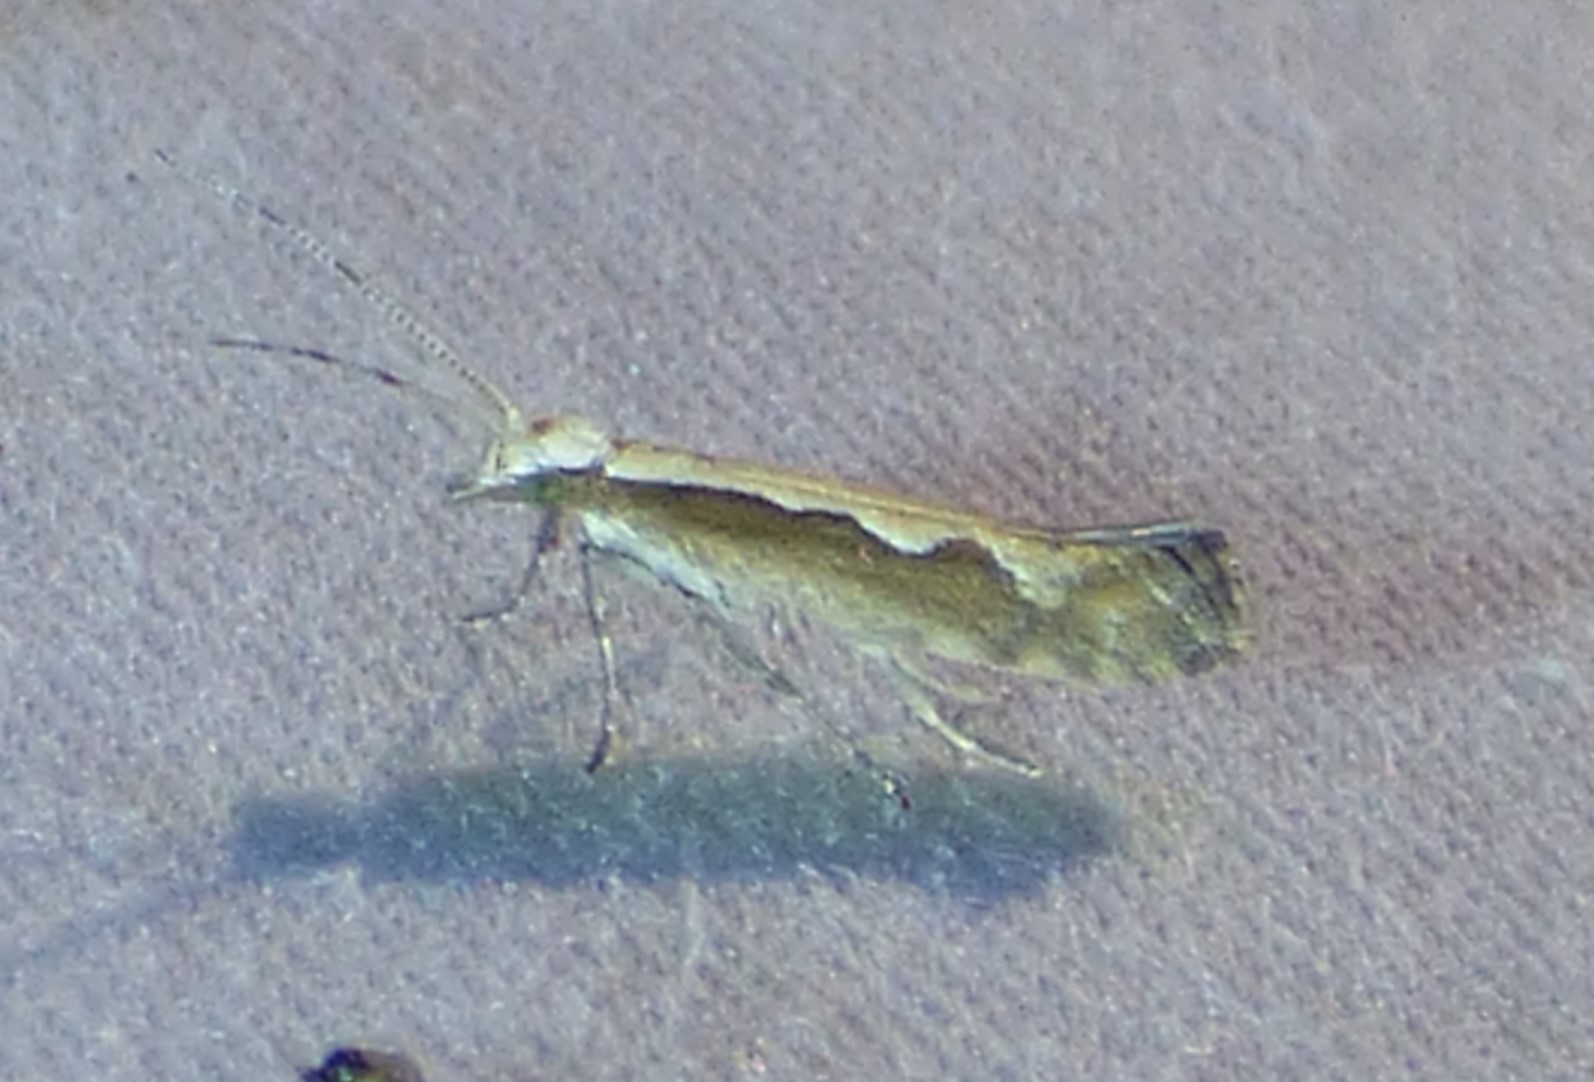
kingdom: Animalia
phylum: Arthropoda
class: Insecta
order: Lepidoptera
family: Plutellidae
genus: Plutella
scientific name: Plutella xylostella
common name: Diamond-back moth
